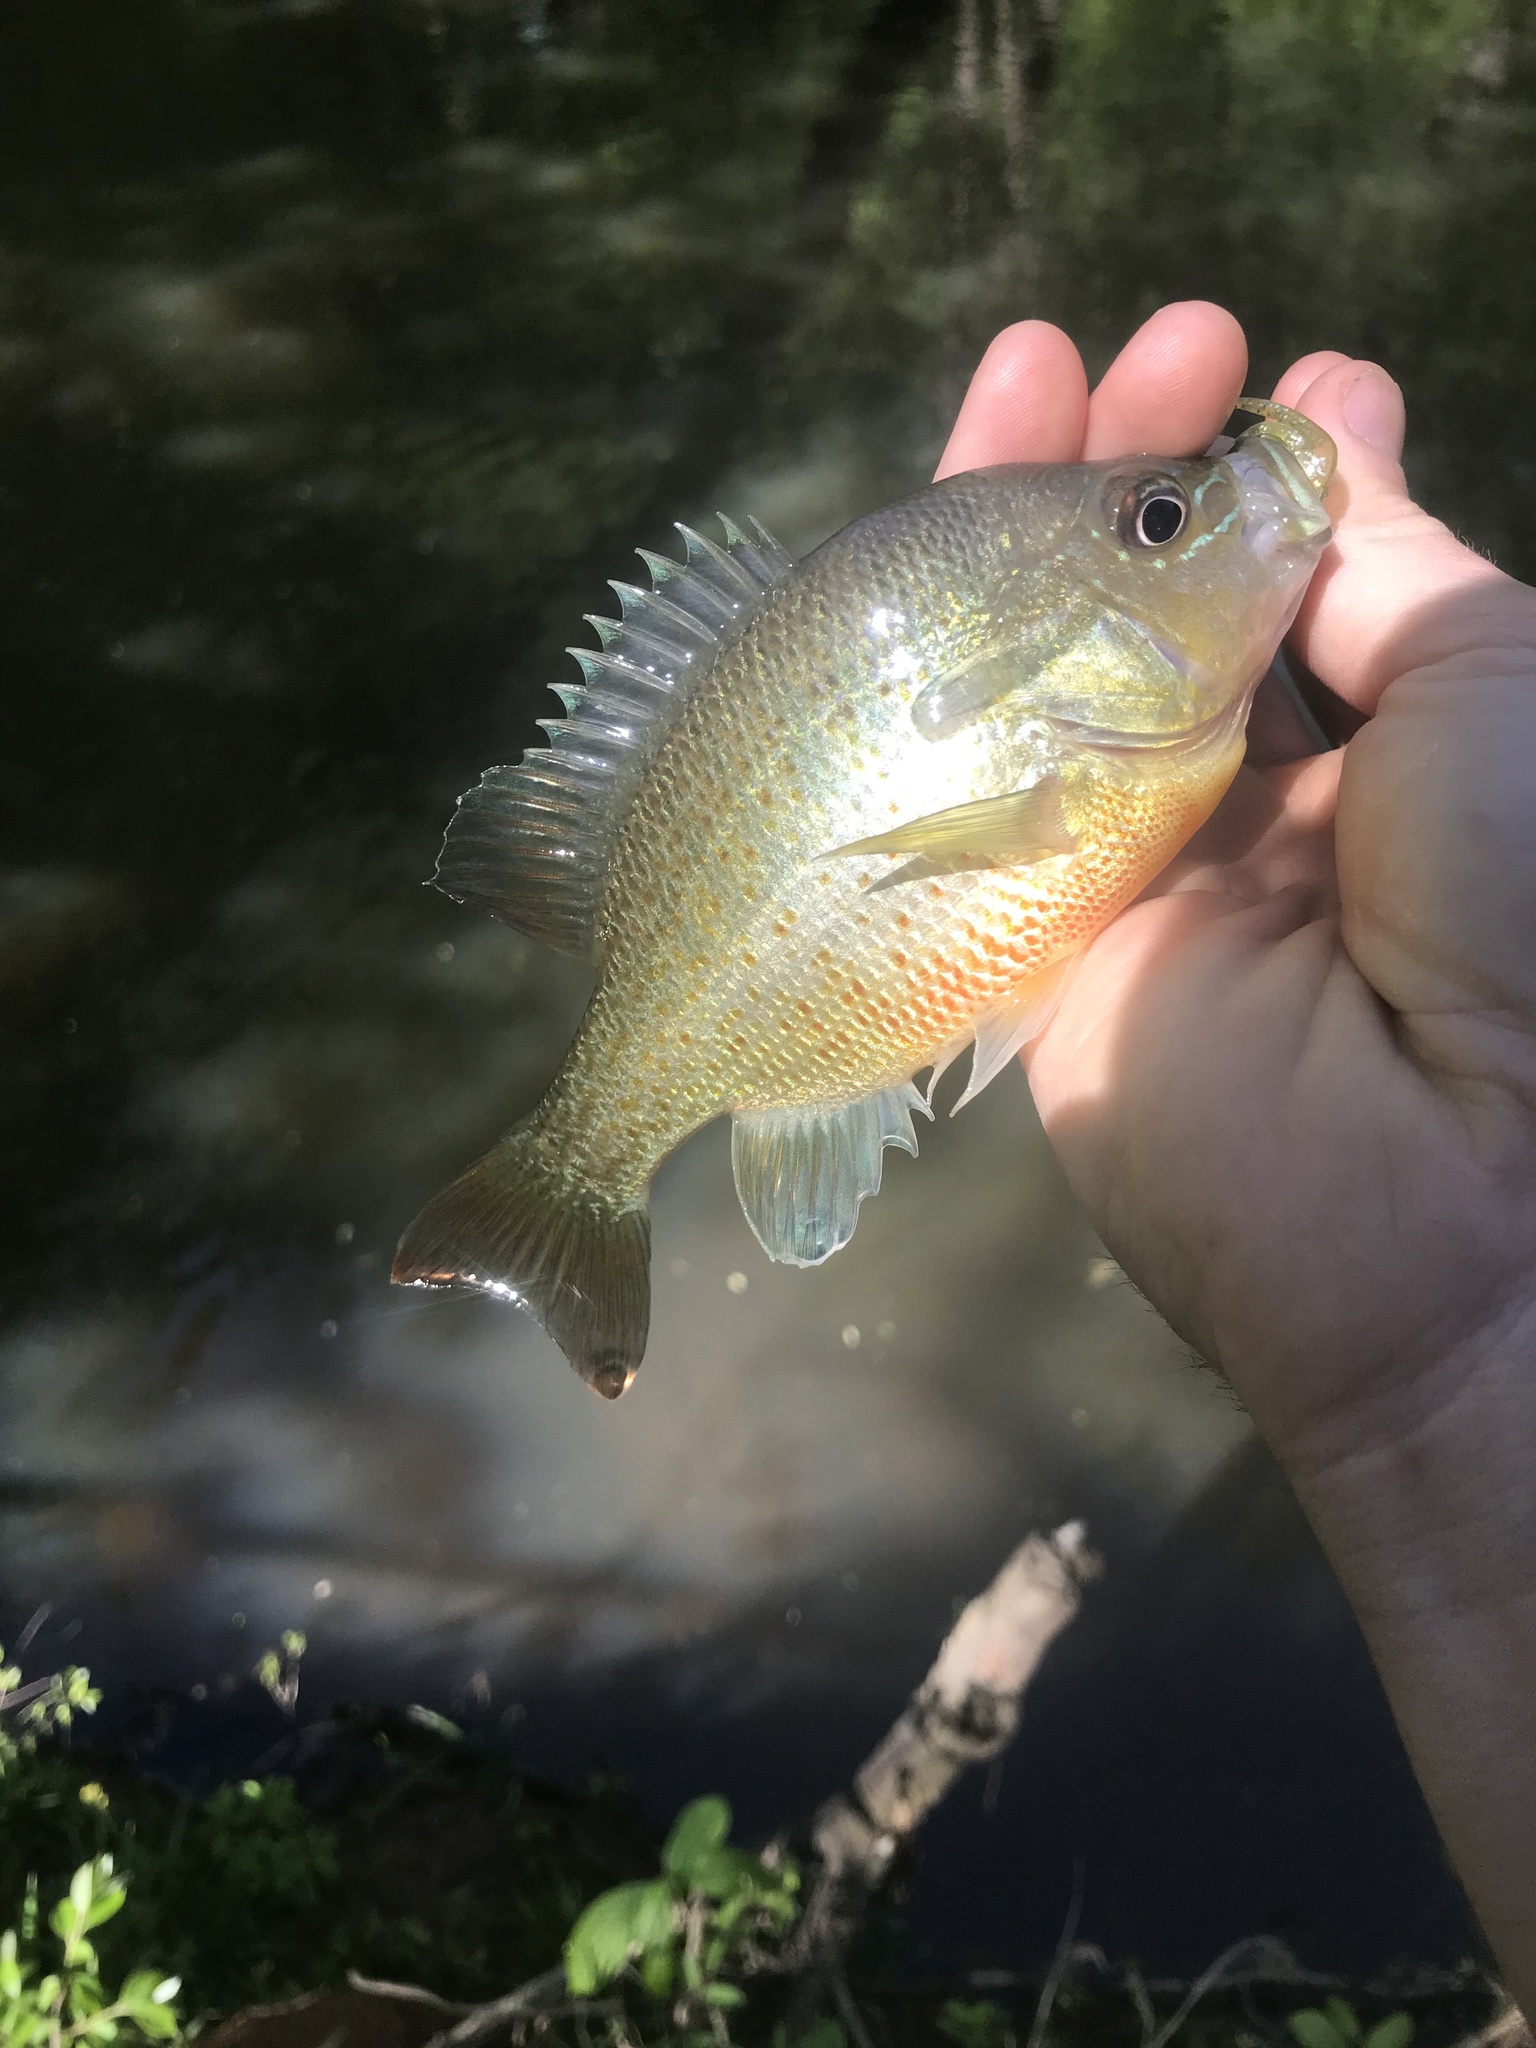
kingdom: Animalia
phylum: Chordata
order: Perciformes
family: Centrarchidae
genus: Lepomis
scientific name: Lepomis auritus
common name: Redbreast sunfish
